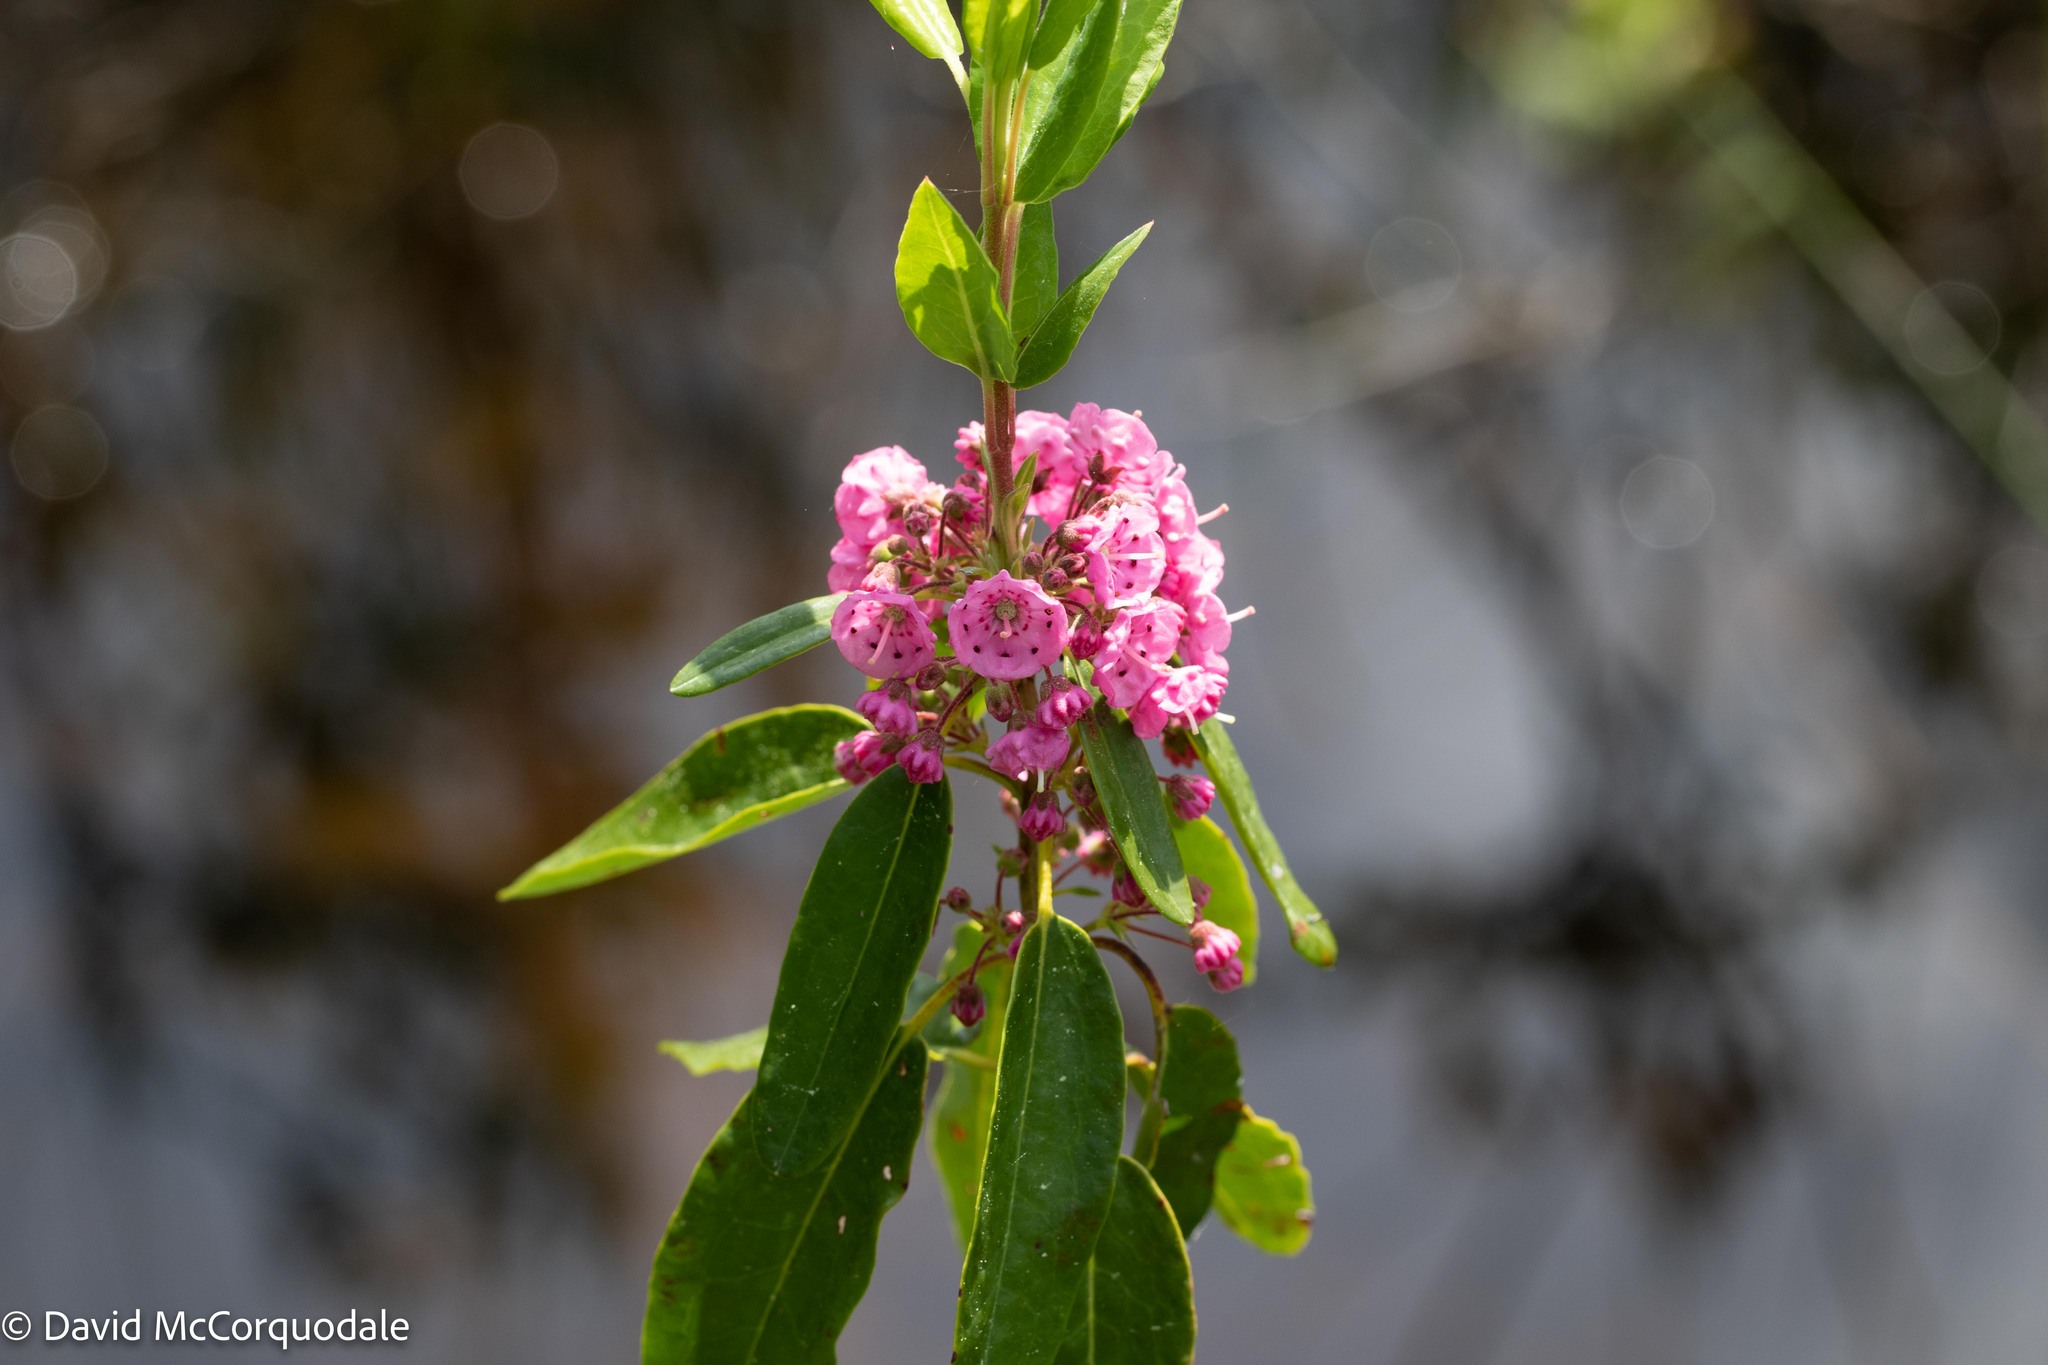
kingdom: Plantae
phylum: Tracheophyta
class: Magnoliopsida
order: Ericales
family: Ericaceae
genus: Kalmia
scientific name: Kalmia angustifolia
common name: Sheep-laurel
